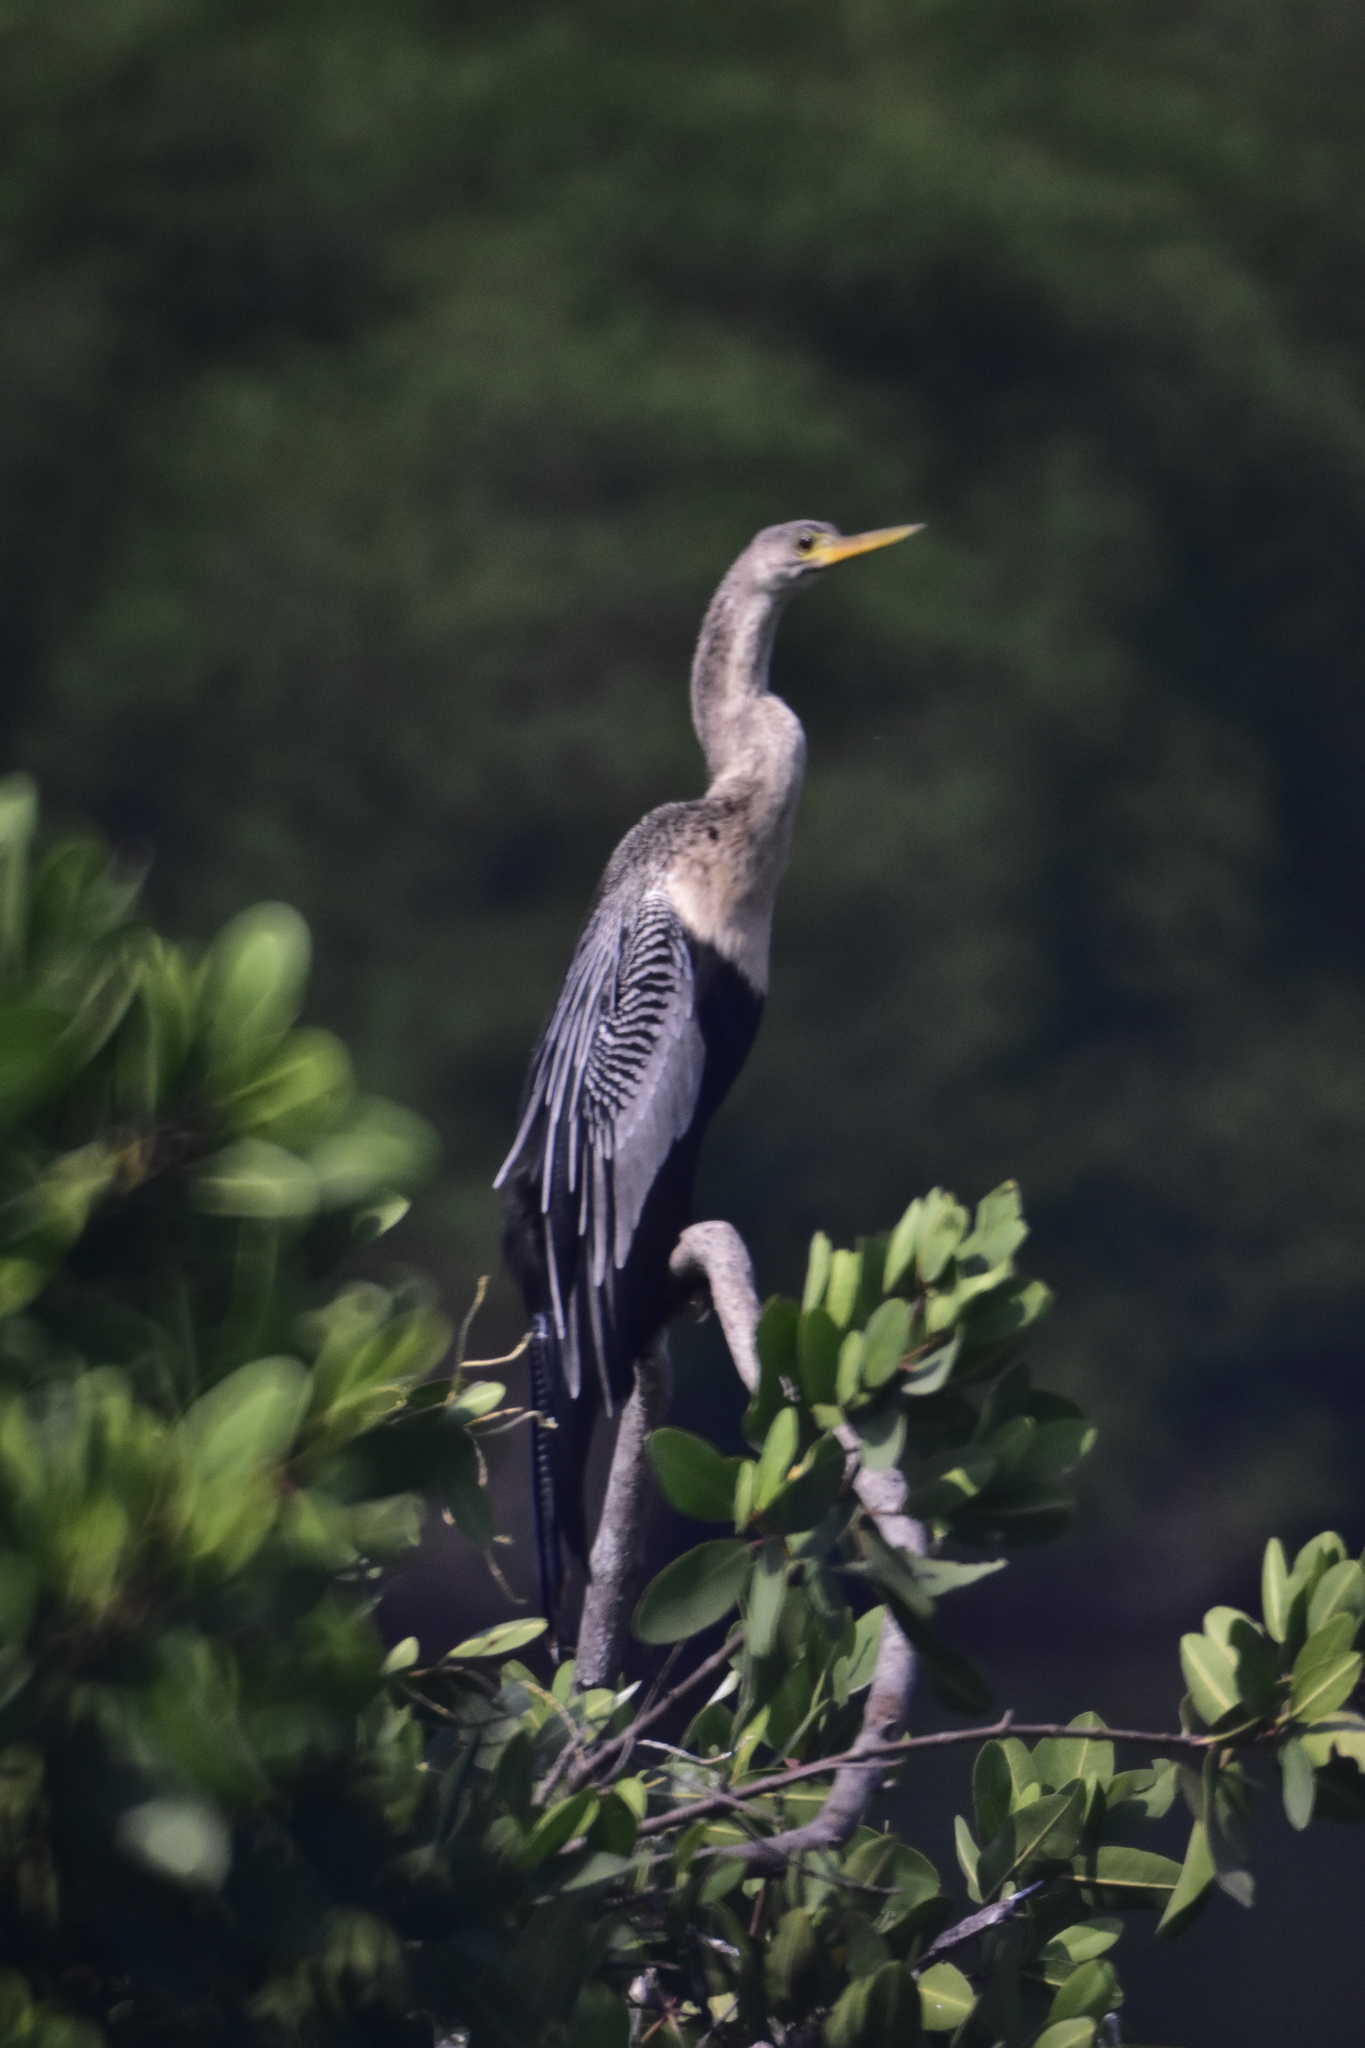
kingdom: Animalia
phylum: Chordata
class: Aves
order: Suliformes
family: Anhingidae
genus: Anhinga
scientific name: Anhinga anhinga
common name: Anhinga
